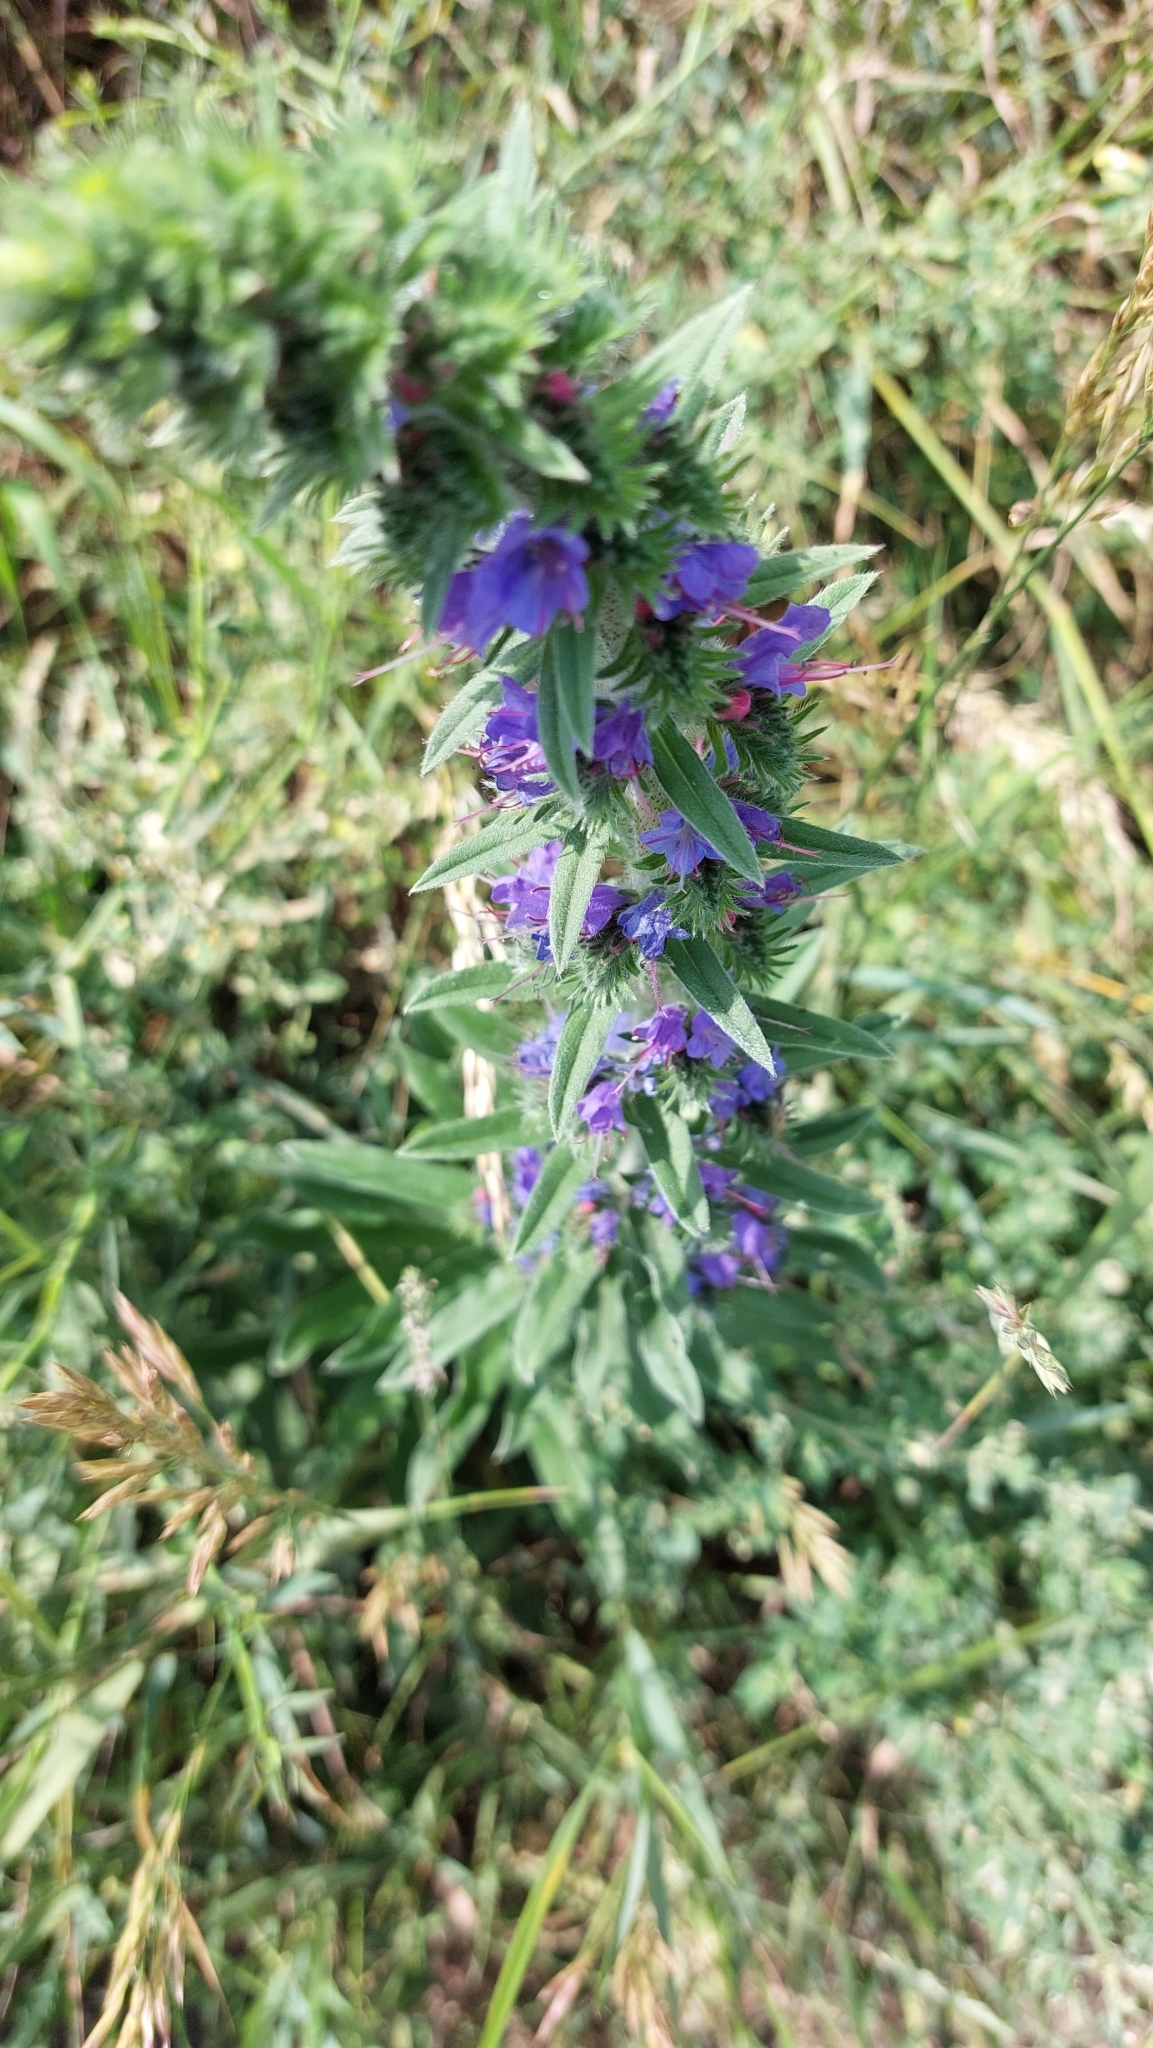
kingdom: Plantae
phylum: Tracheophyta
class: Magnoliopsida
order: Boraginales
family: Boraginaceae
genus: Echium
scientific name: Echium vulgare
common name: Common viper's bugloss
